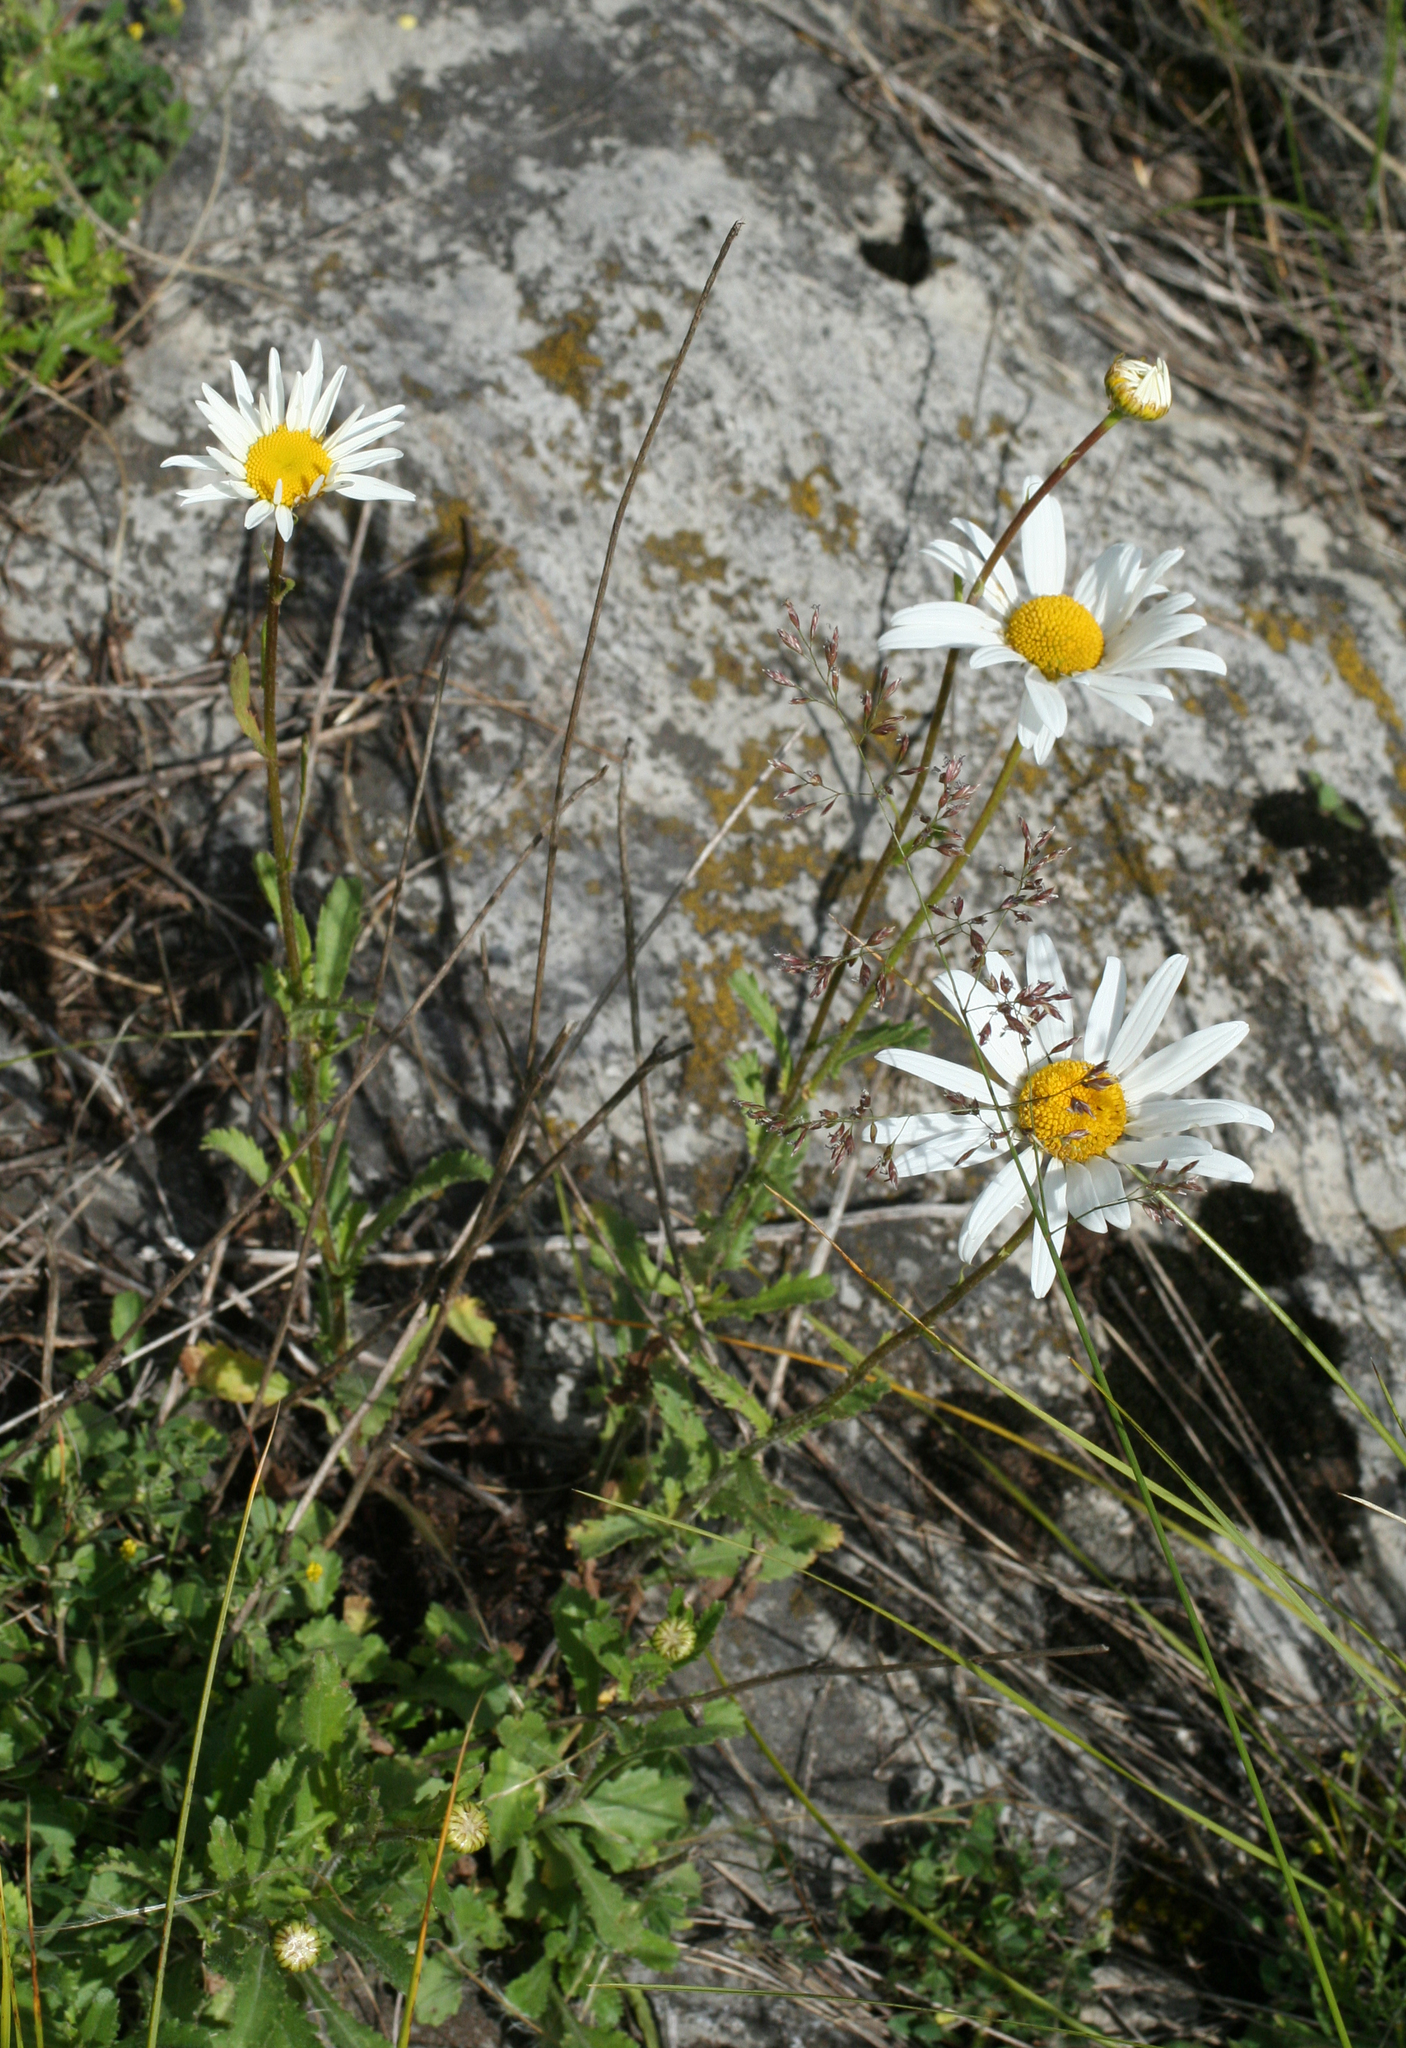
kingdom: Plantae
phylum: Tracheophyta
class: Magnoliopsida
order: Asterales
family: Asteraceae
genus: Leucanthemum
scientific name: Leucanthemum ircutianum
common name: Daisy
